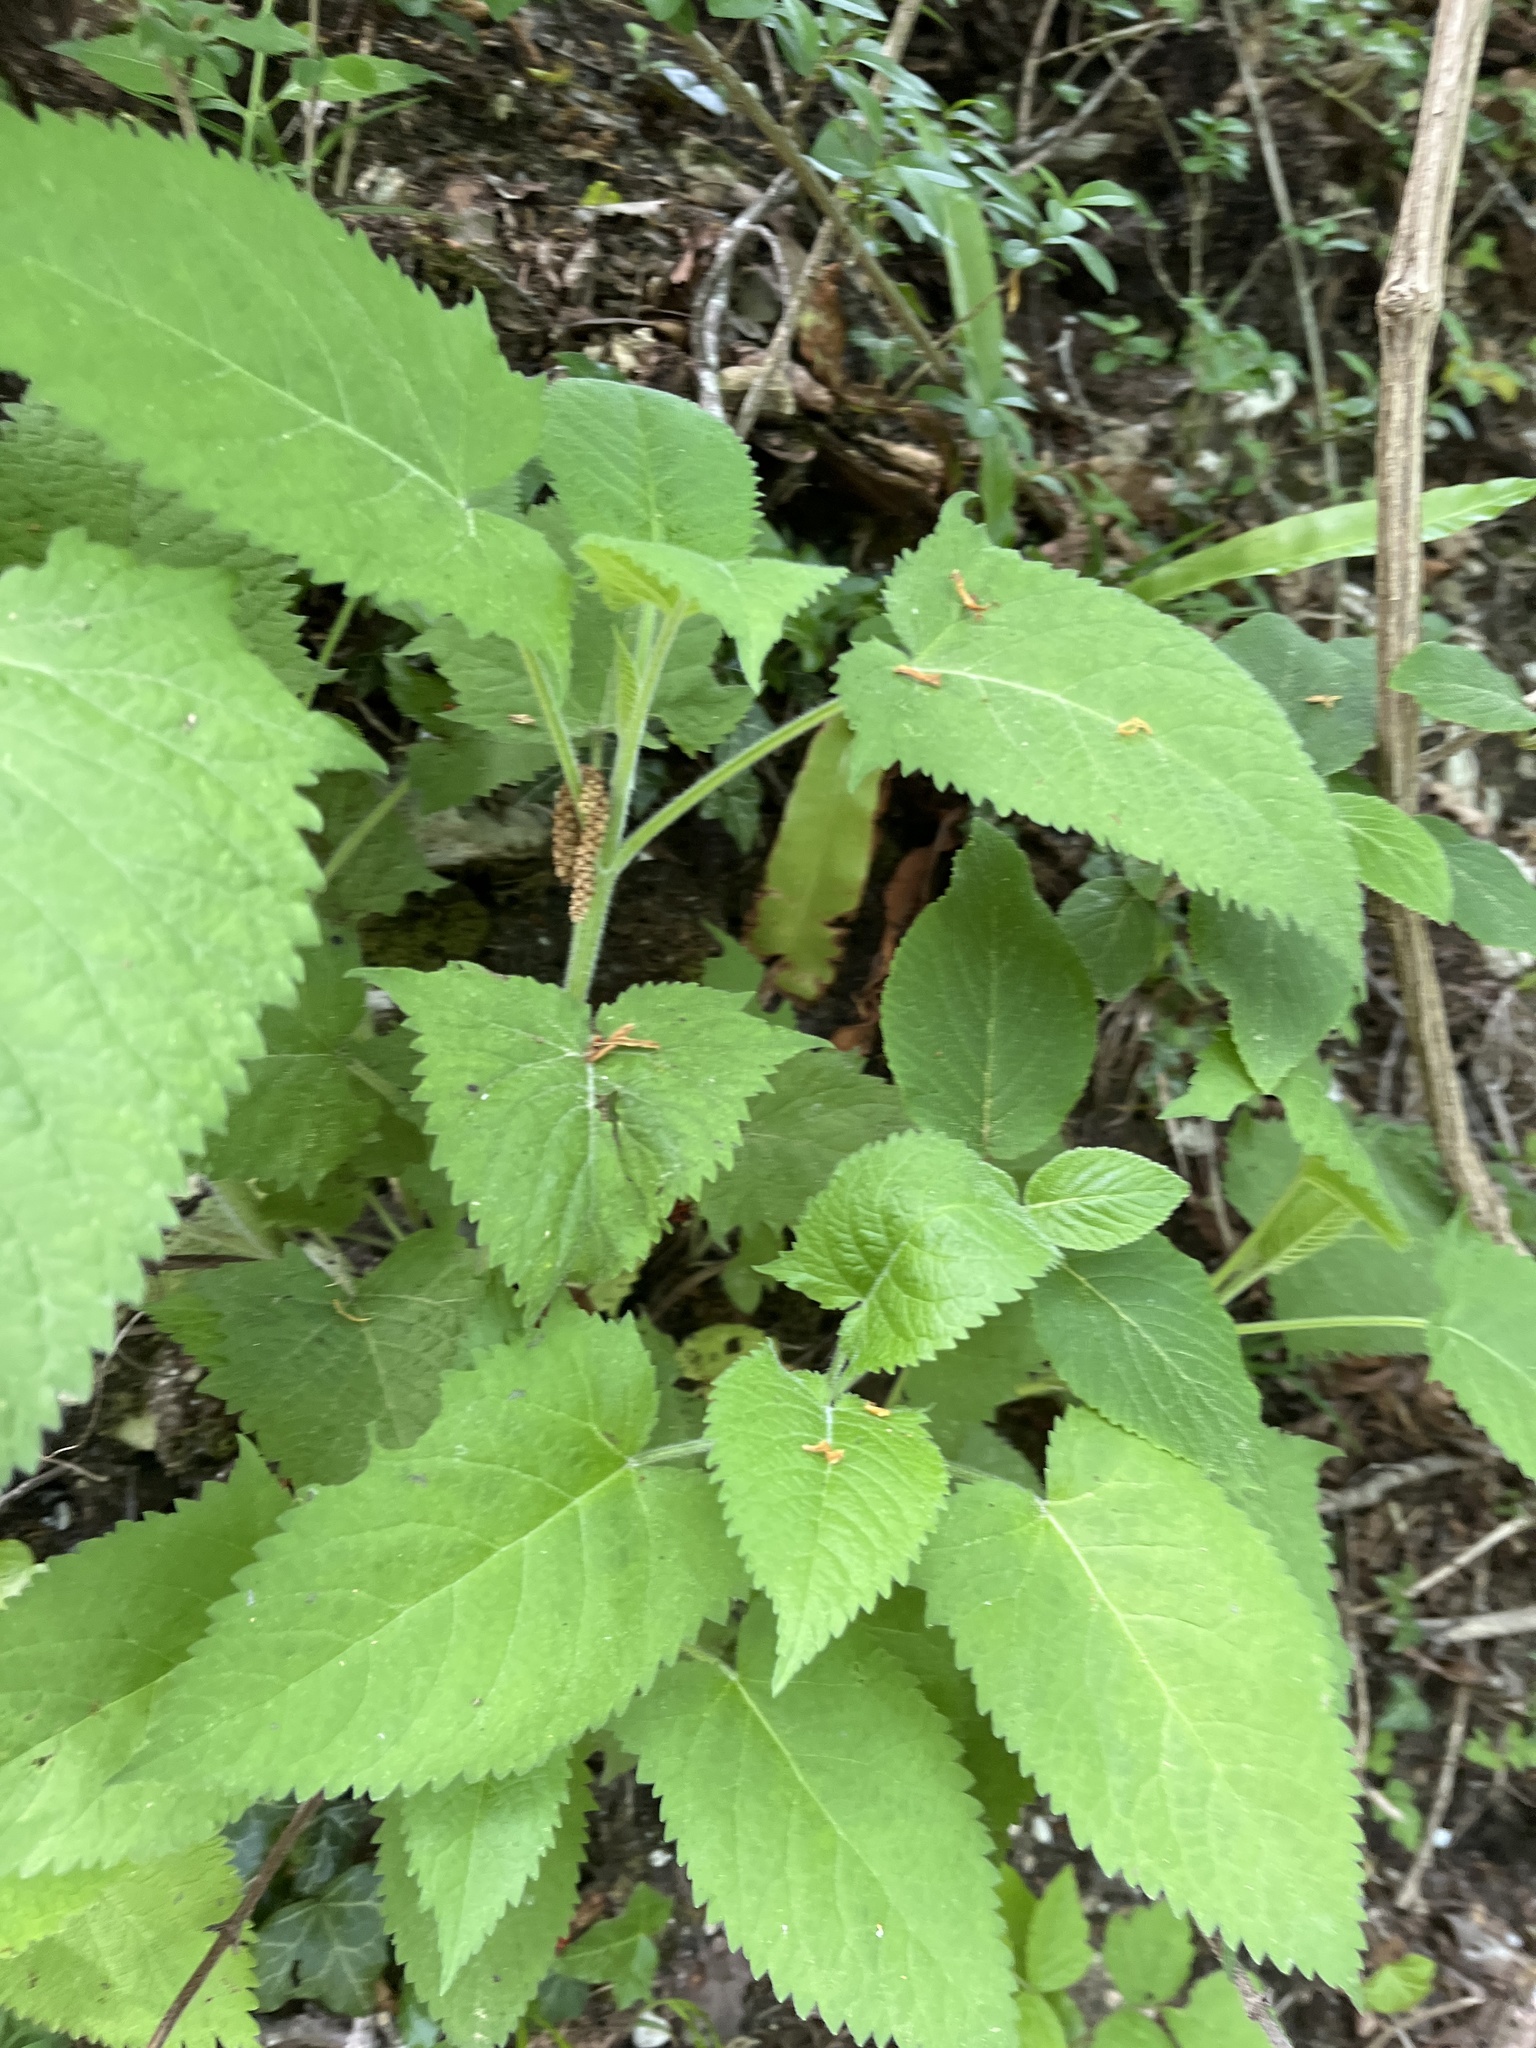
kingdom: Plantae
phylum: Tracheophyta
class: Magnoliopsida
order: Lamiales
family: Lamiaceae
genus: Salvia
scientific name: Salvia glutinosa
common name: Sticky clary
